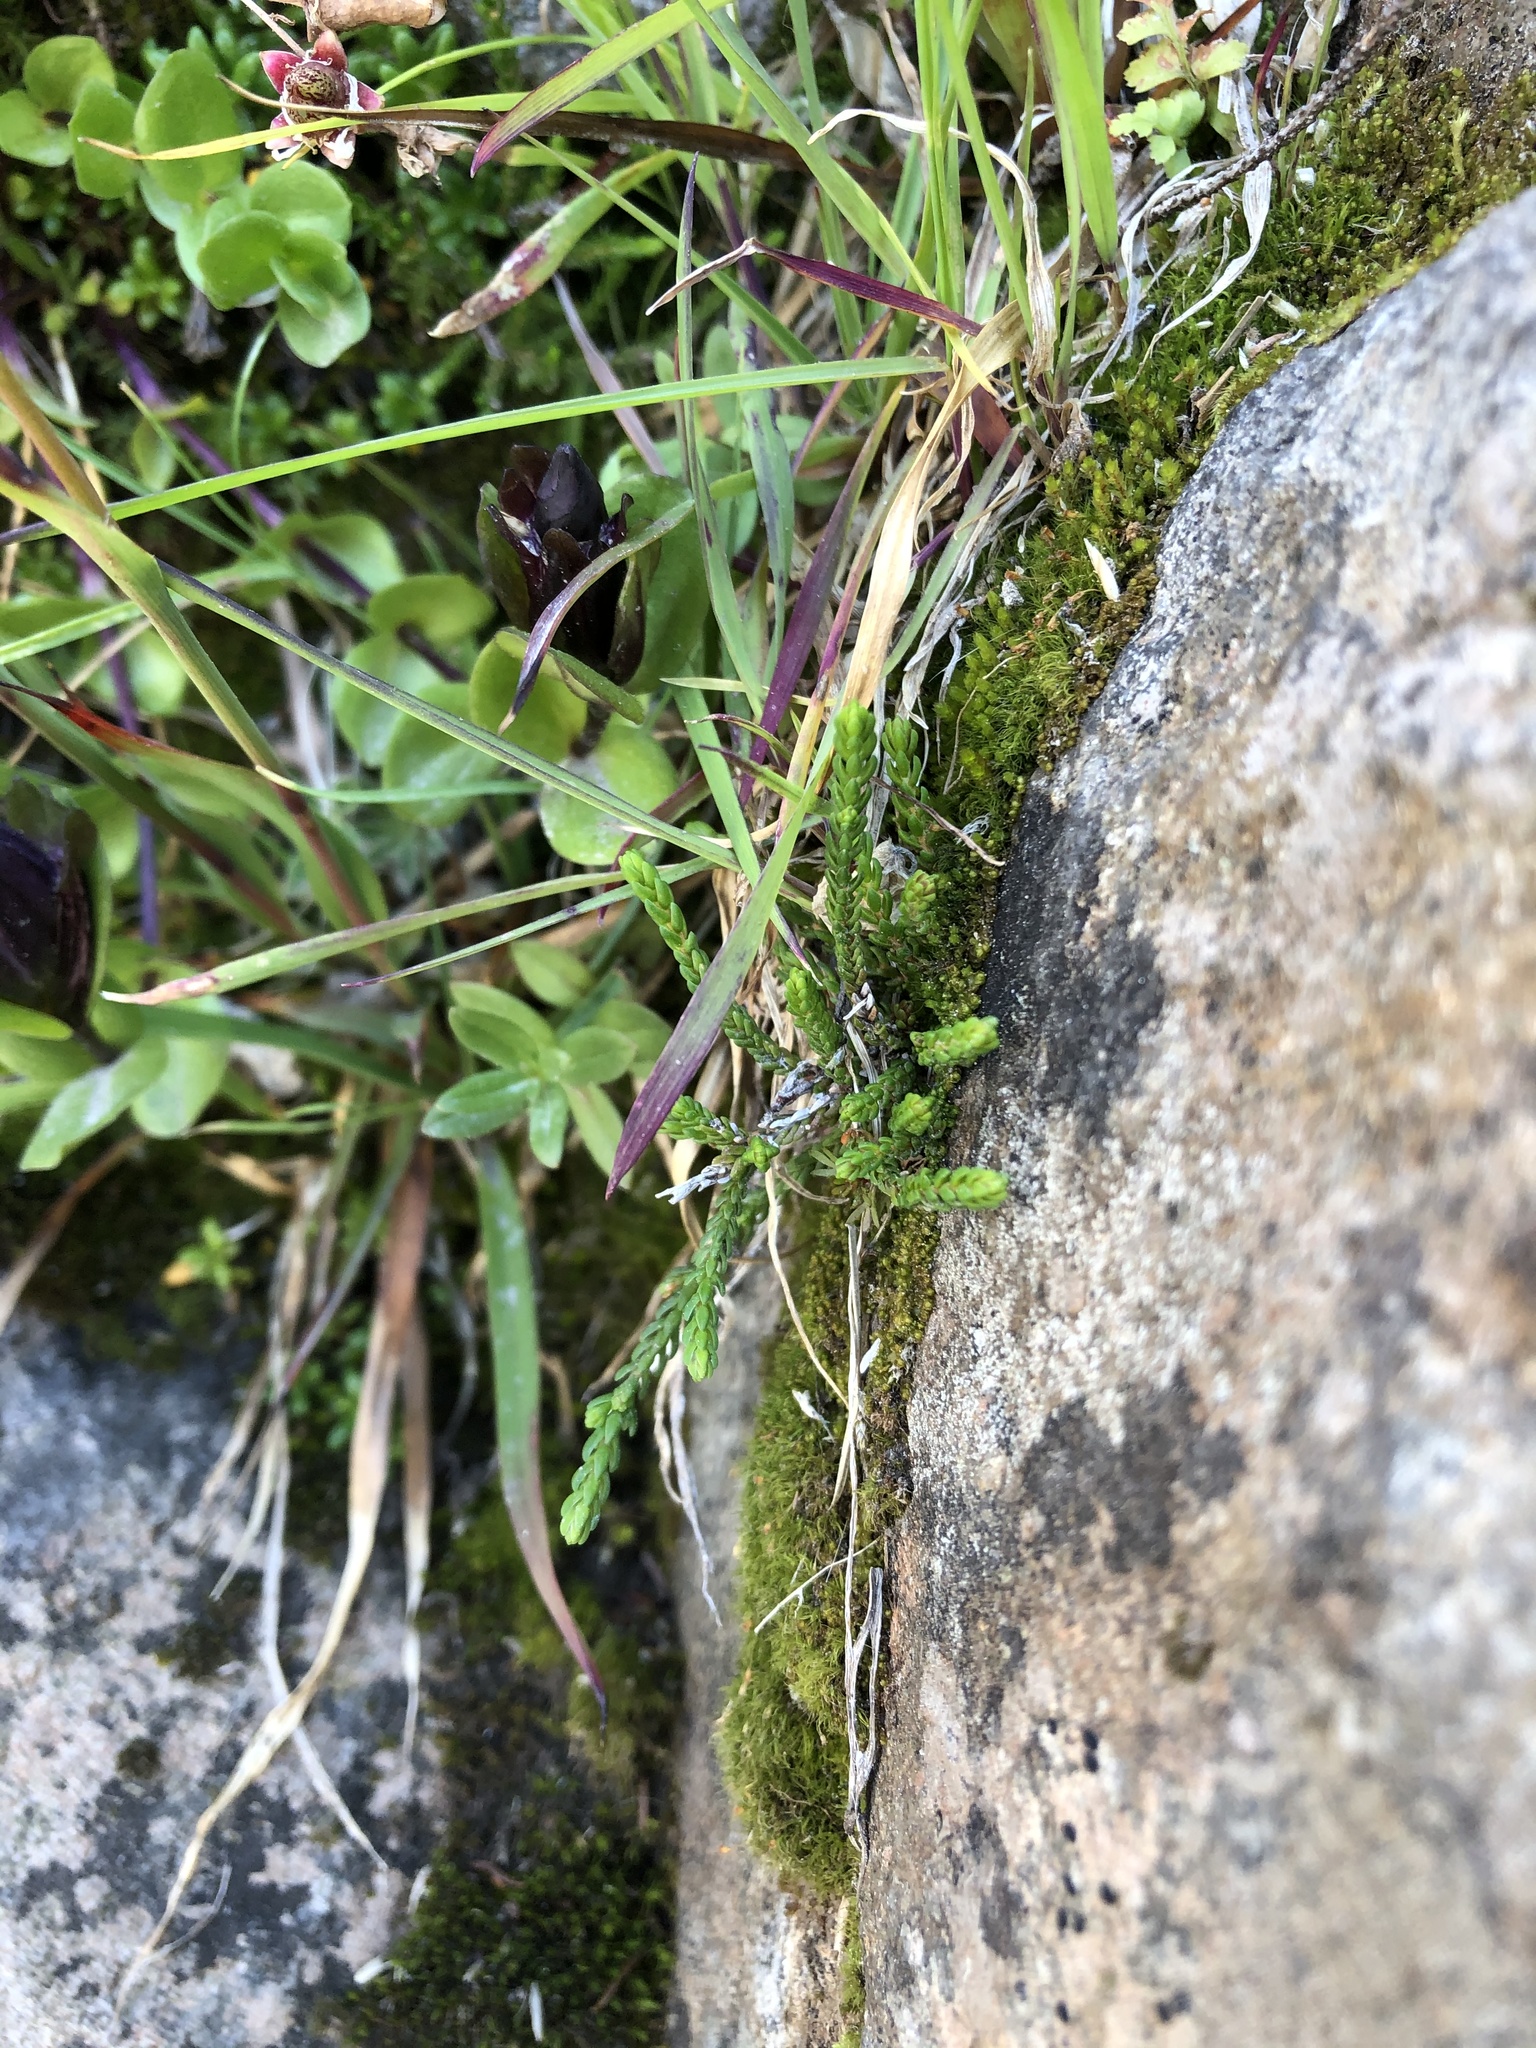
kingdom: Plantae
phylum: Tracheophyta
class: Magnoliopsida
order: Ericales
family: Ericaceae
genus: Cassiope
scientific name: Cassiope mertensiana
